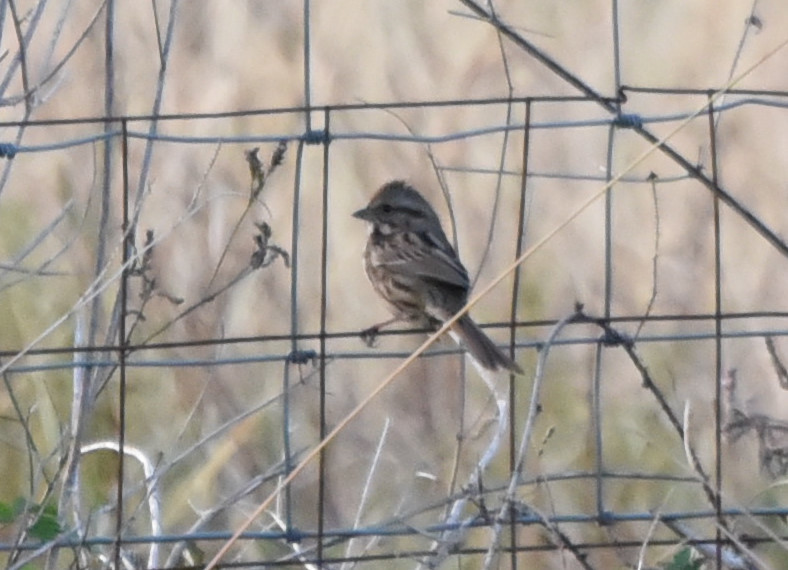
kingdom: Animalia
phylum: Chordata
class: Aves
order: Passeriformes
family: Passerellidae
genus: Melospiza
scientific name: Melospiza melodia
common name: Song sparrow
